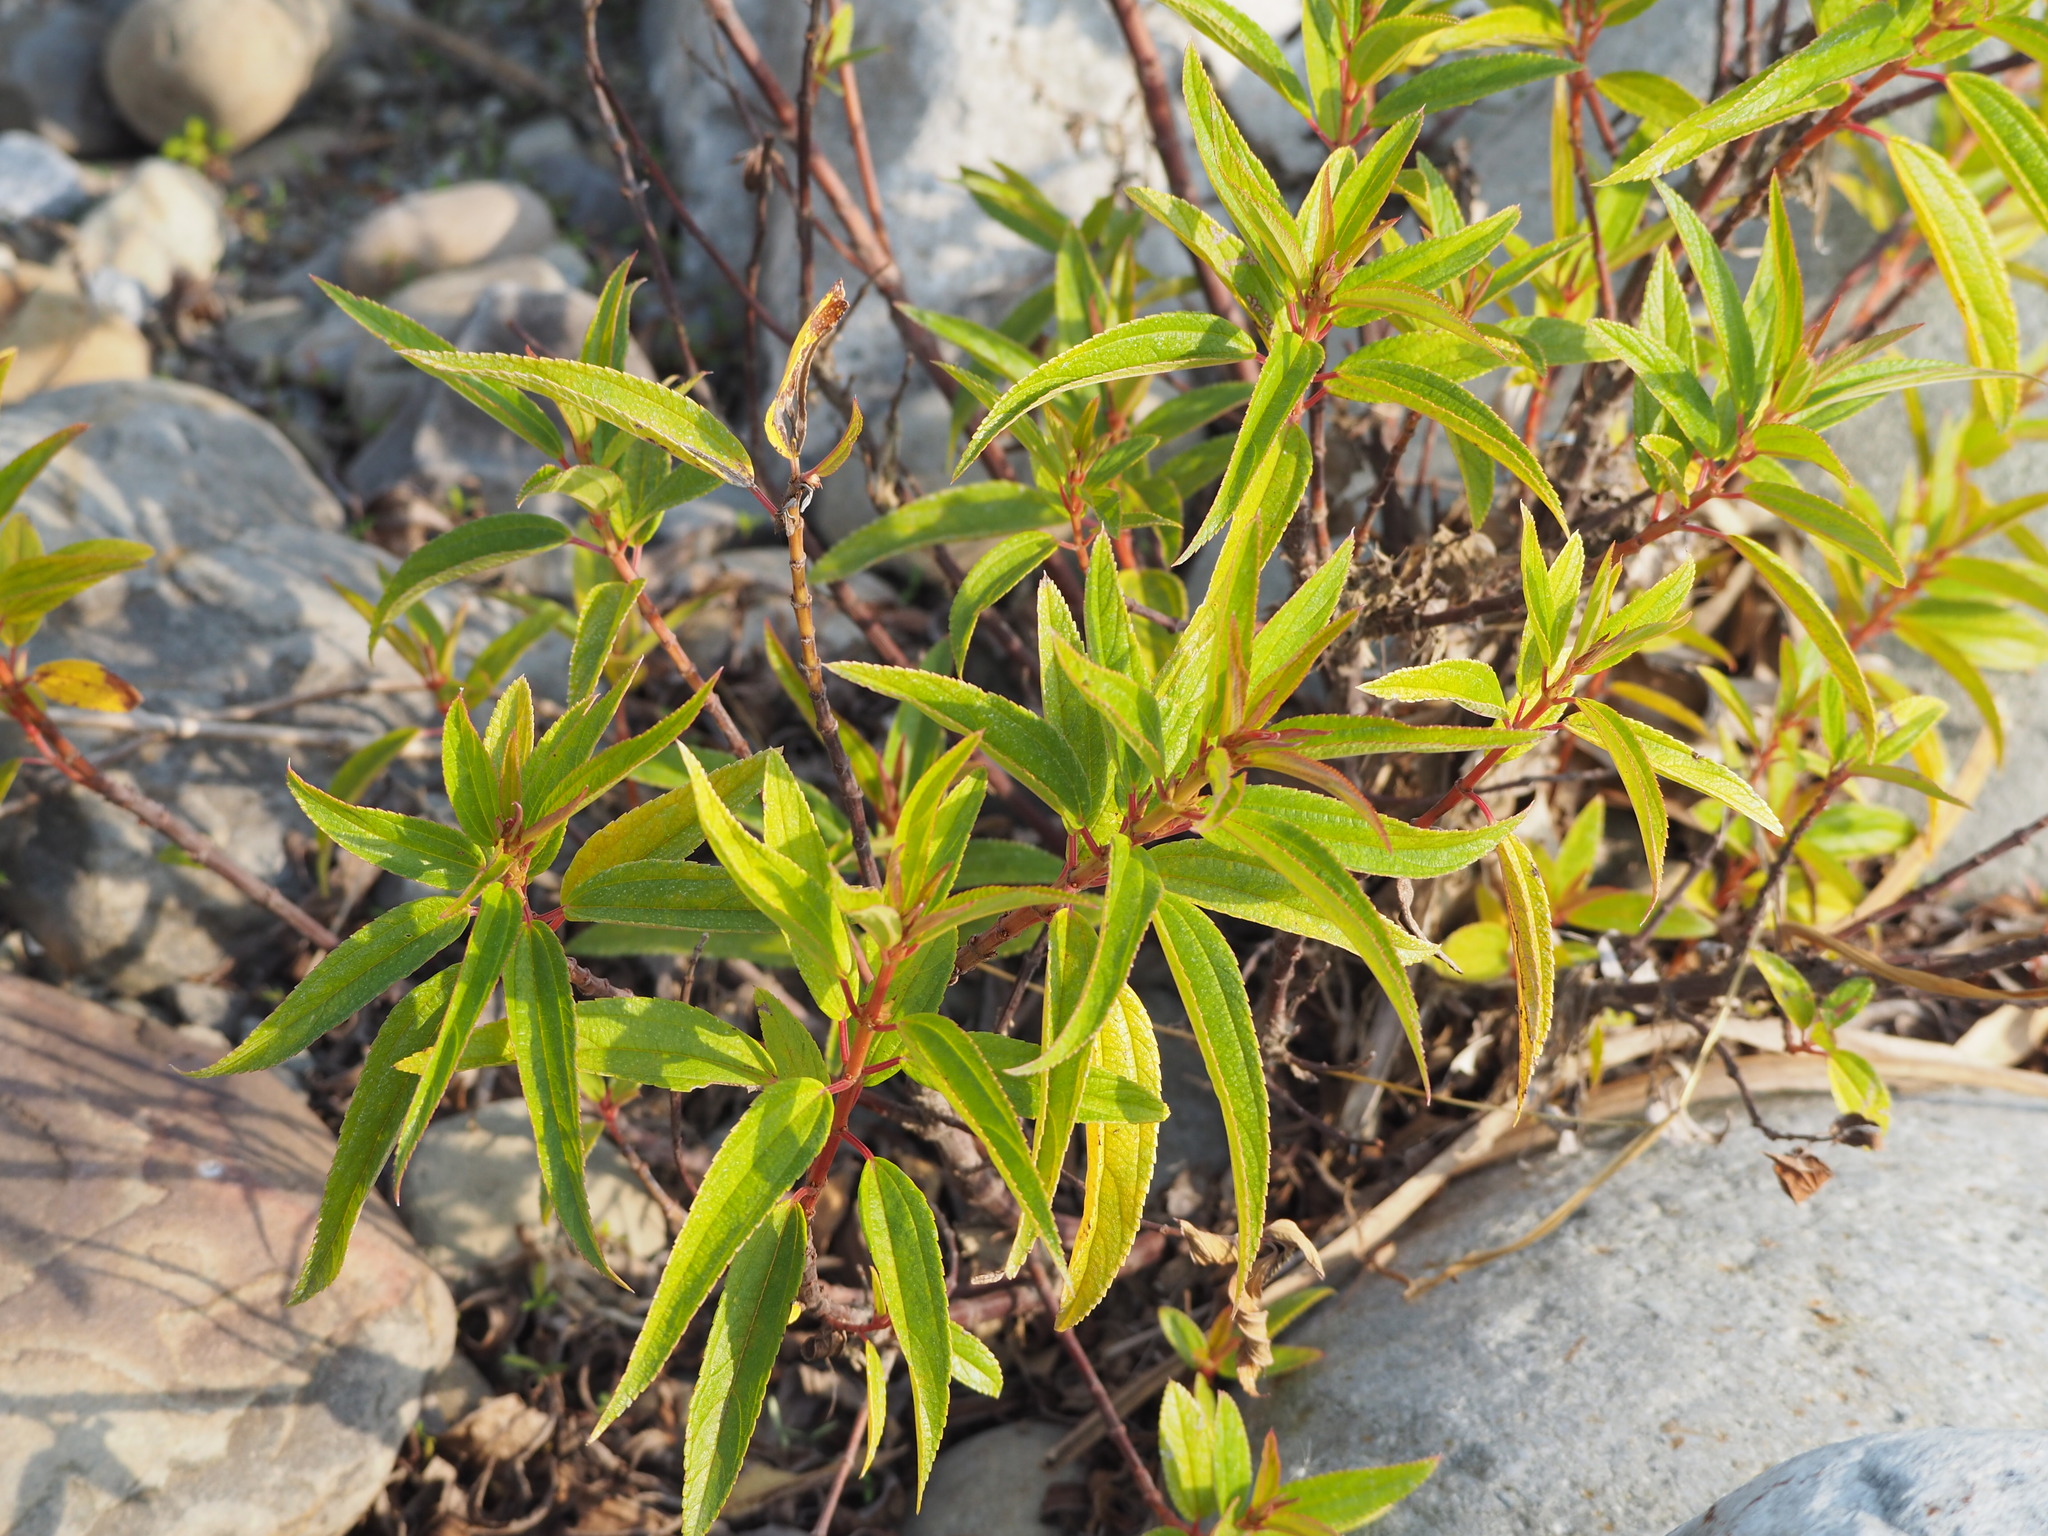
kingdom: Plantae
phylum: Tracheophyta
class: Magnoliopsida
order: Rosales
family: Urticaceae
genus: Boehmeria
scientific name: Boehmeria densiflora
